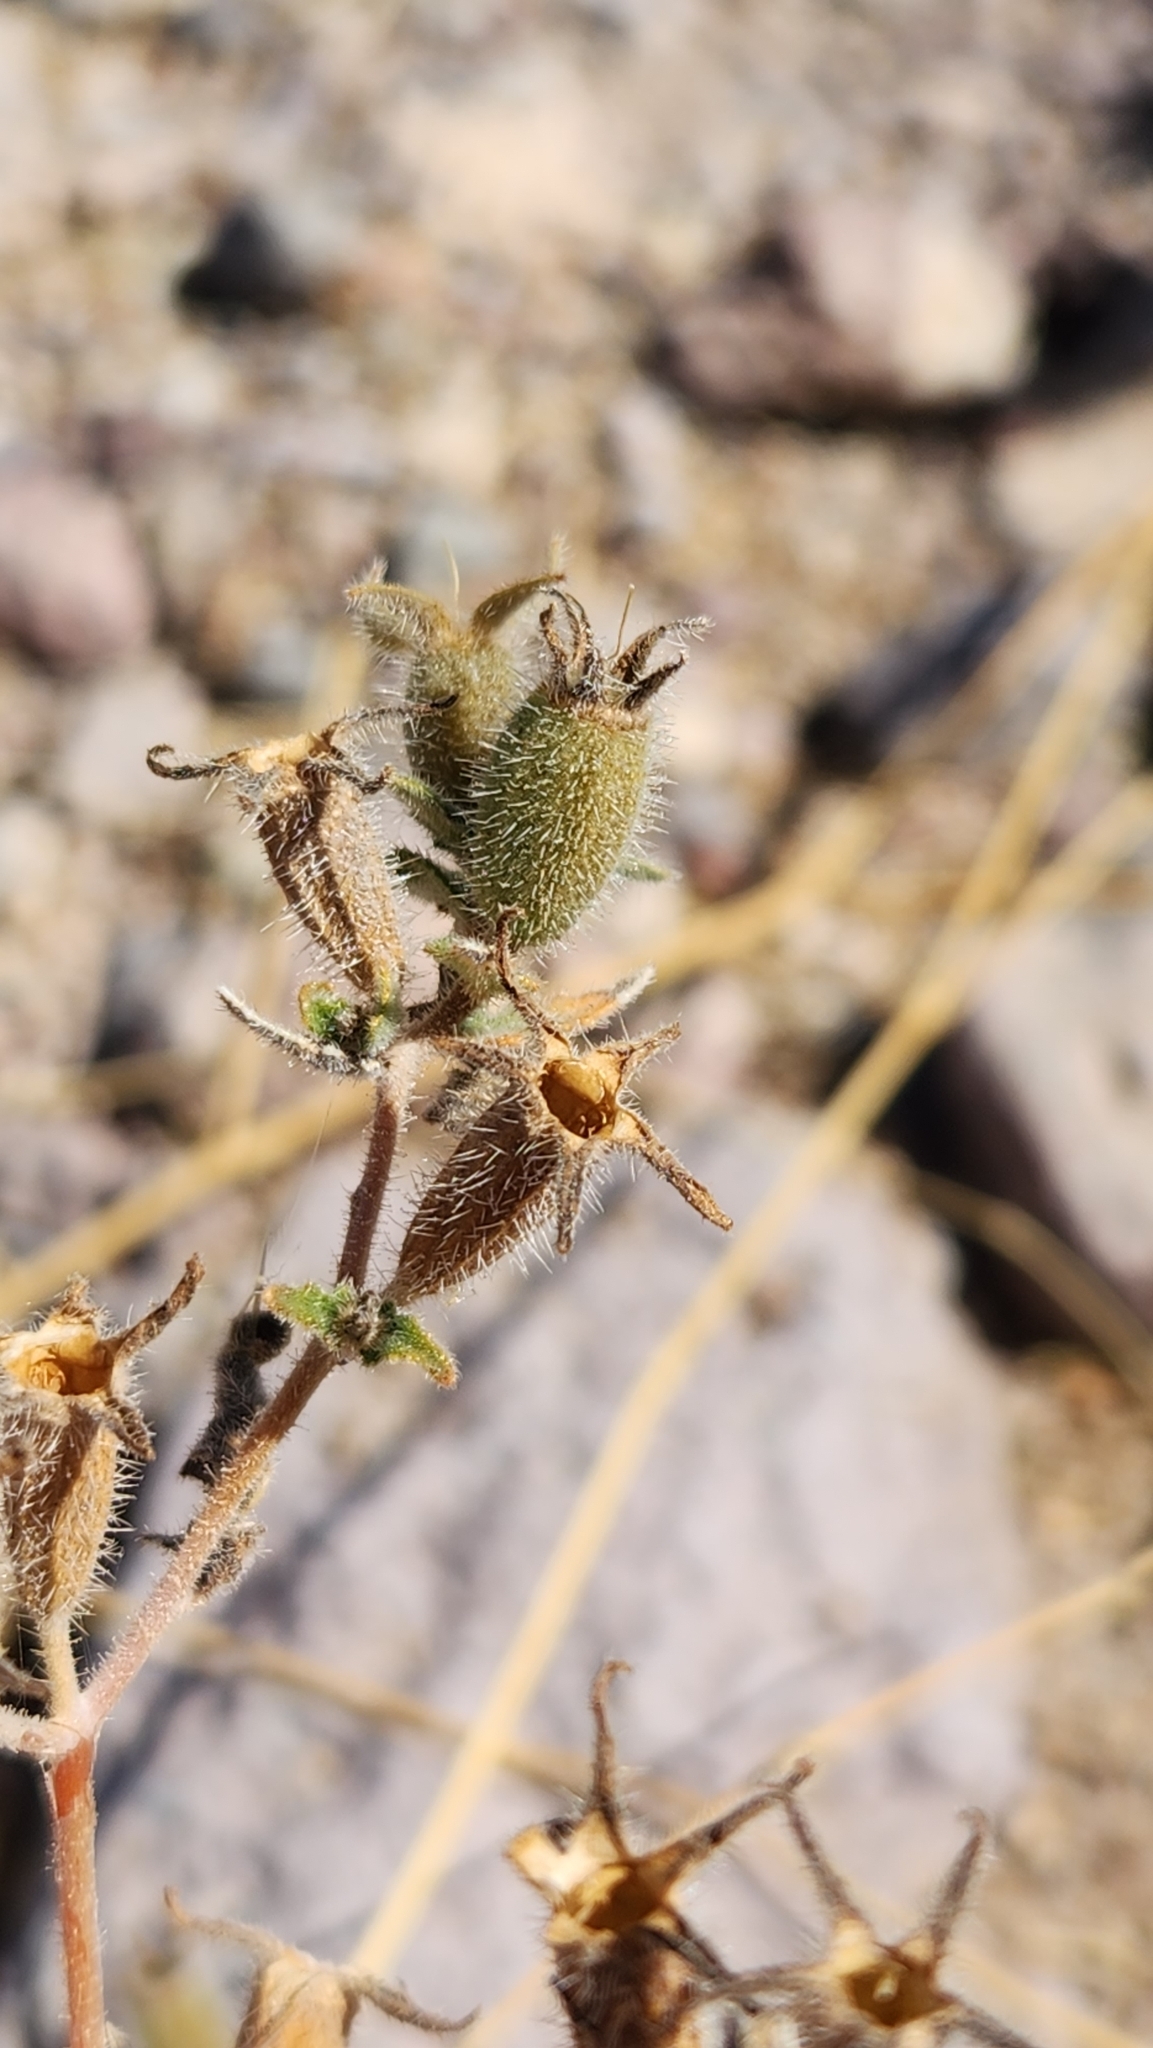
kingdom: Plantae
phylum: Tracheophyta
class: Magnoliopsida
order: Cornales
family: Loasaceae
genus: Mentzelia
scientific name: Mentzelia adhaerens
